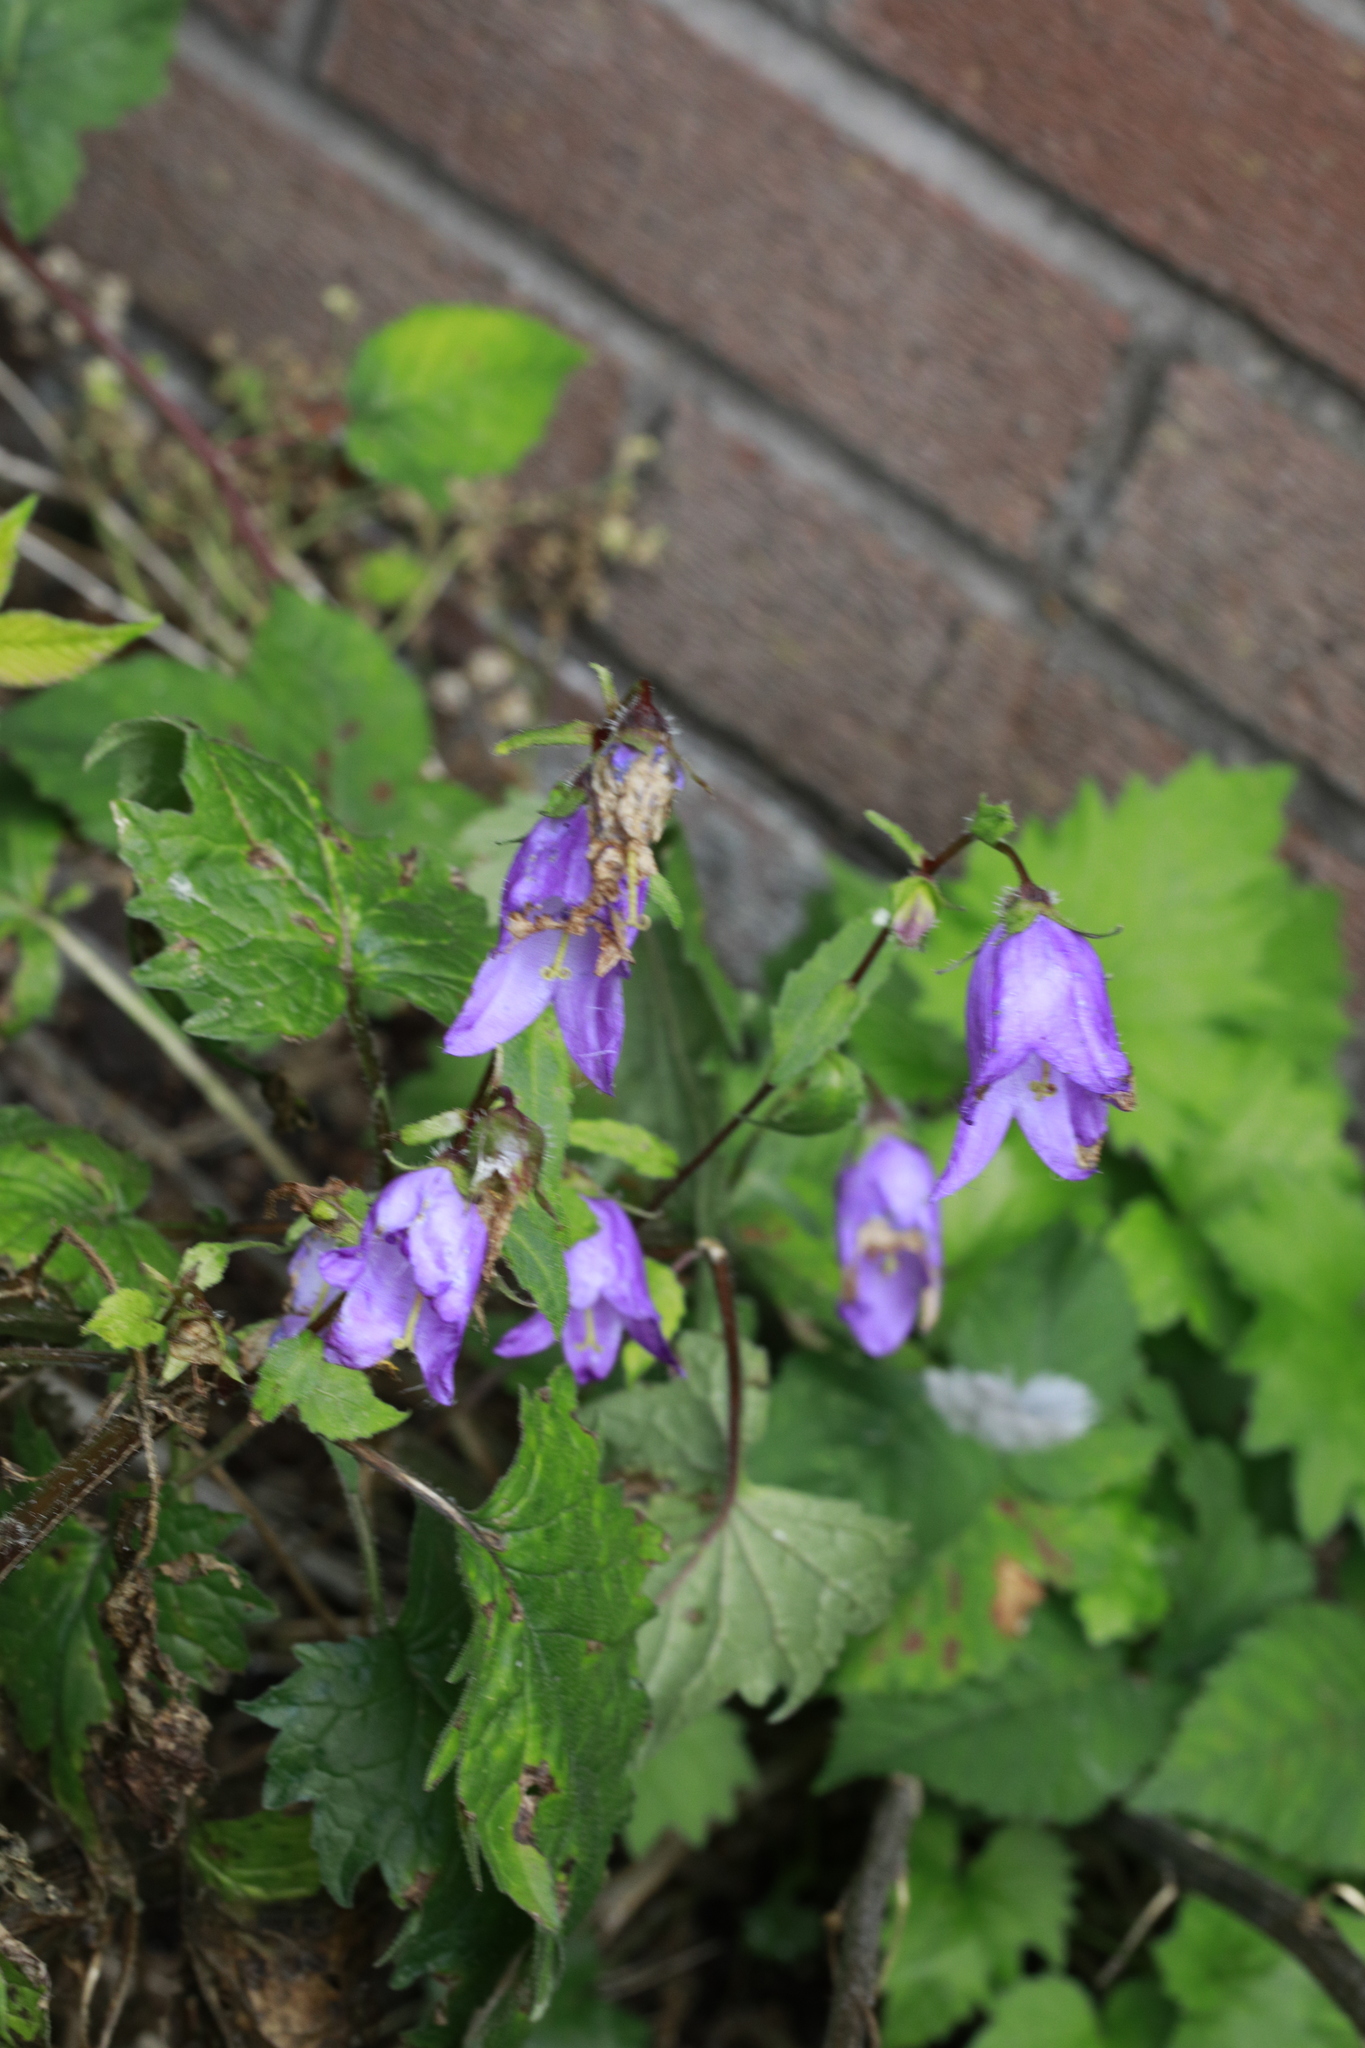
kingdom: Plantae
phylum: Tracheophyta
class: Magnoliopsida
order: Asterales
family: Campanulaceae
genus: Campanula
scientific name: Campanula trachelium
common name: Nettle-leaved bellflower
